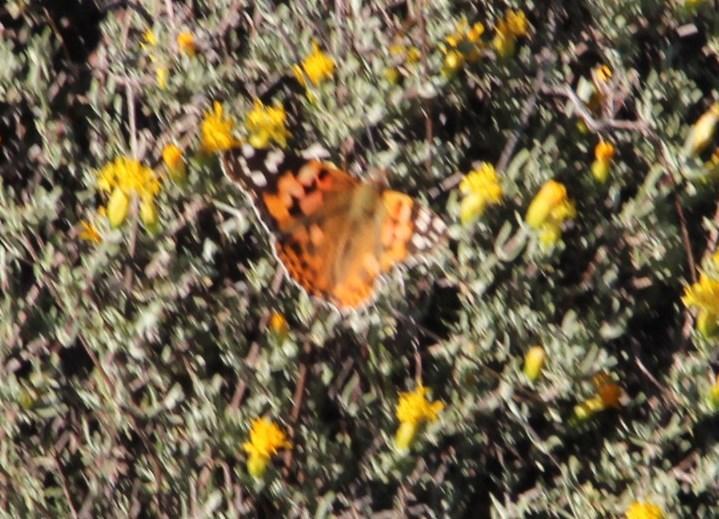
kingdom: Animalia
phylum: Arthropoda
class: Insecta
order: Lepidoptera
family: Nymphalidae
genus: Vanessa
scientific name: Vanessa cardui
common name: Painted lady
